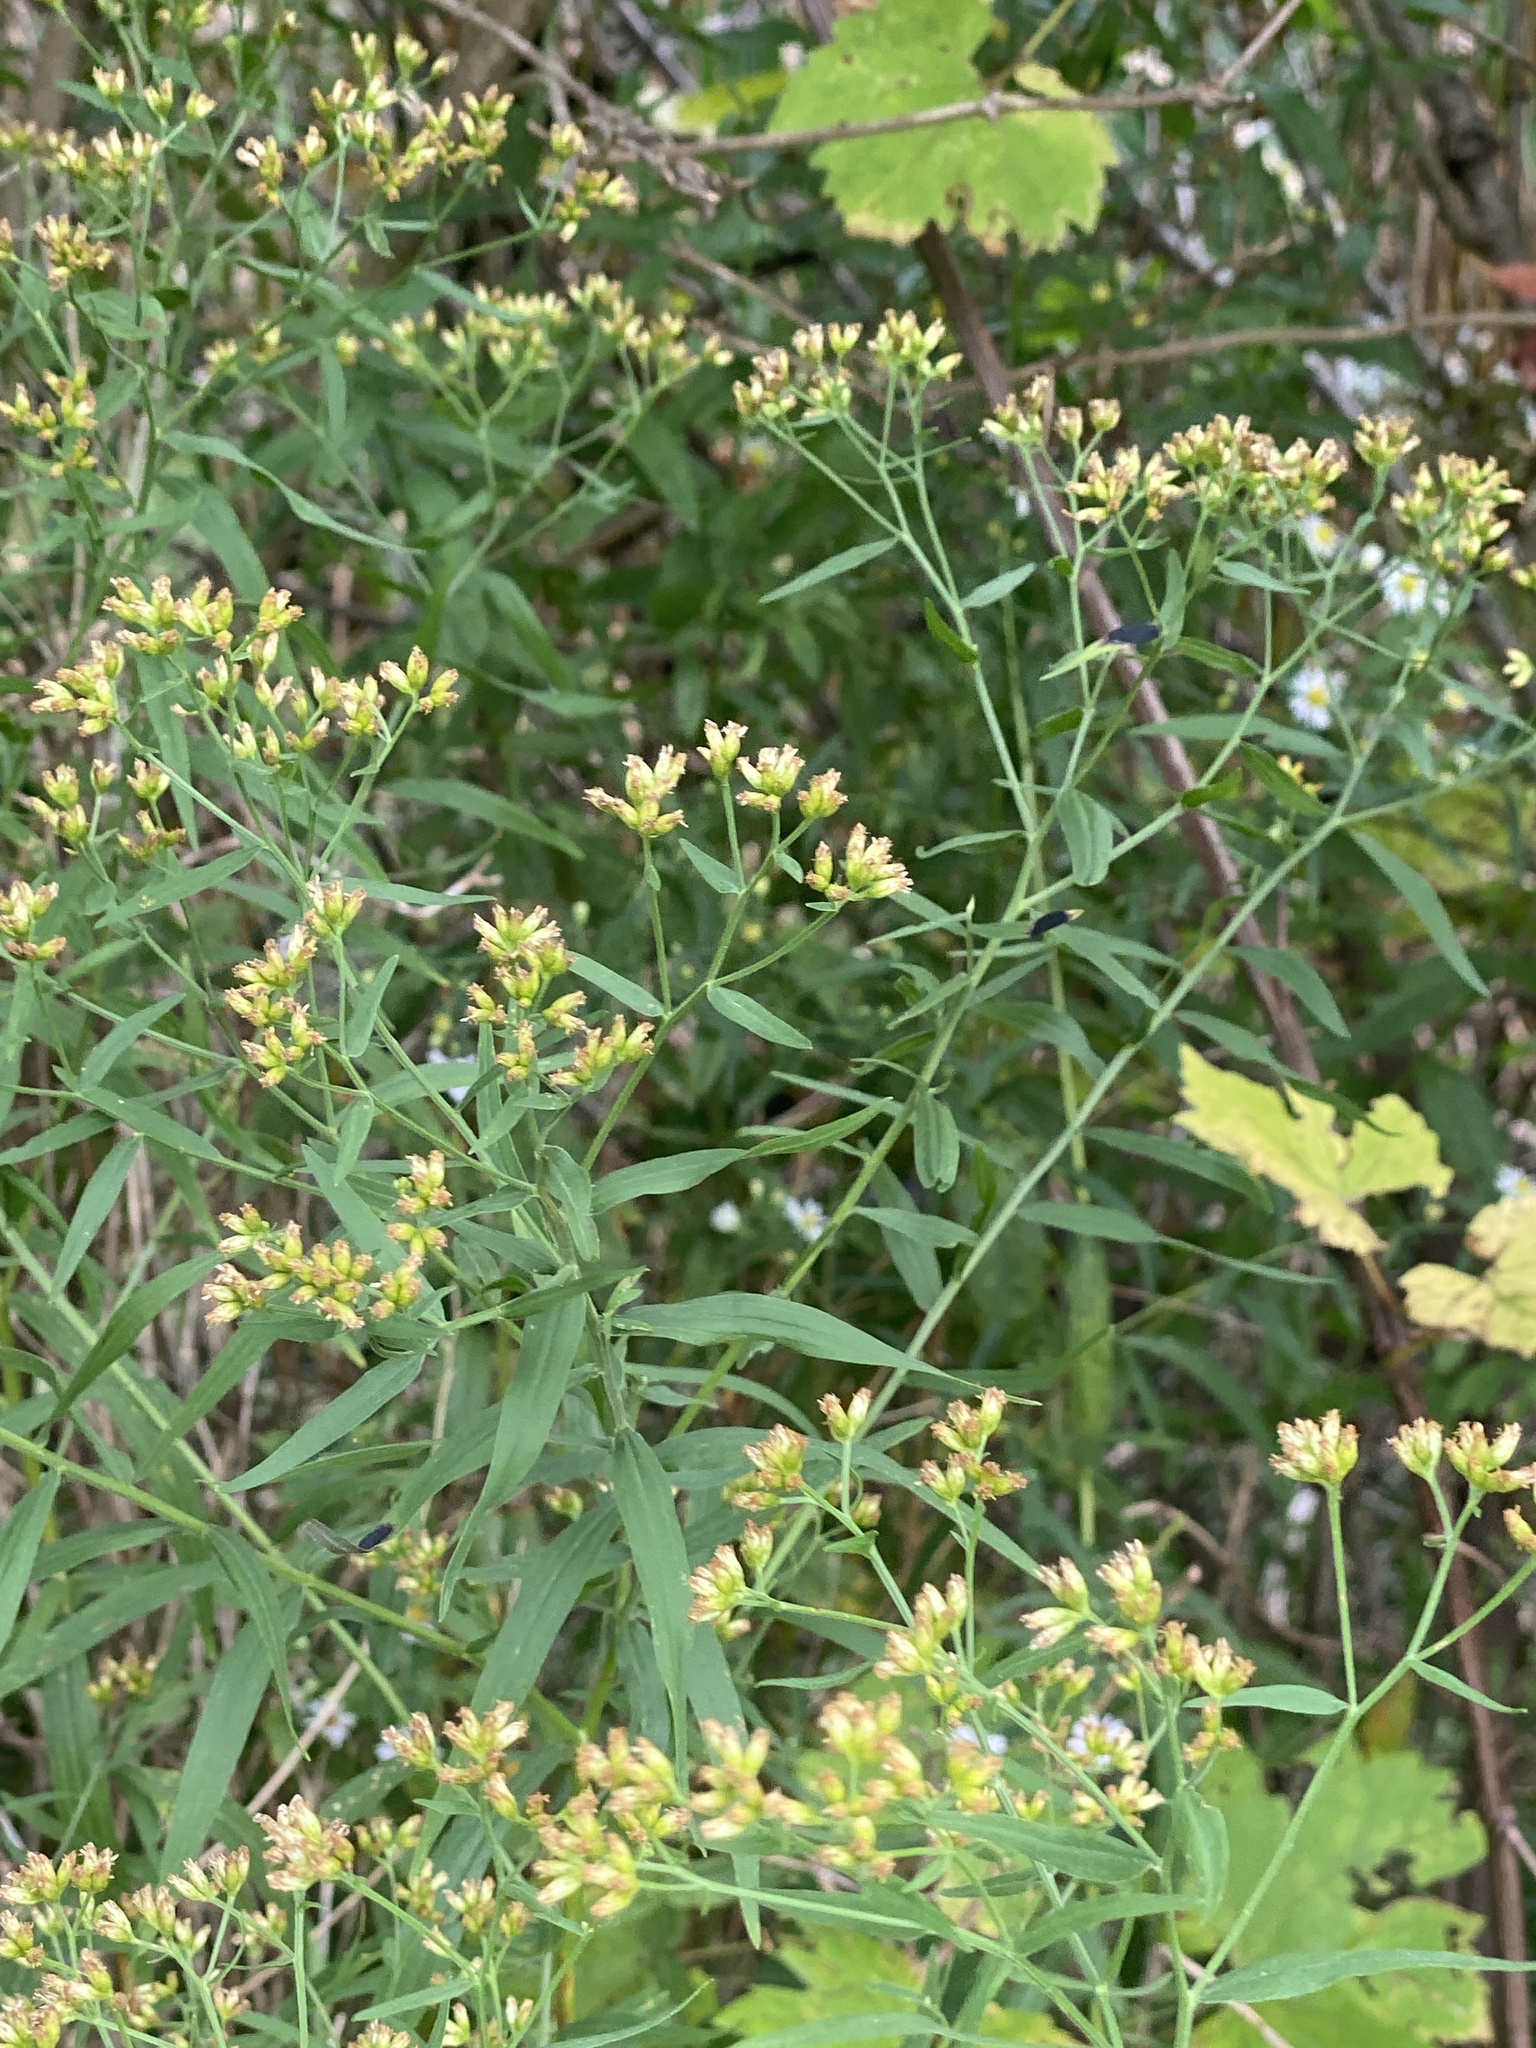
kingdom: Plantae
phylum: Tracheophyta
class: Magnoliopsida
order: Asterales
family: Asteraceae
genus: Euthamia
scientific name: Euthamia graminifolia
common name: Common goldentop
